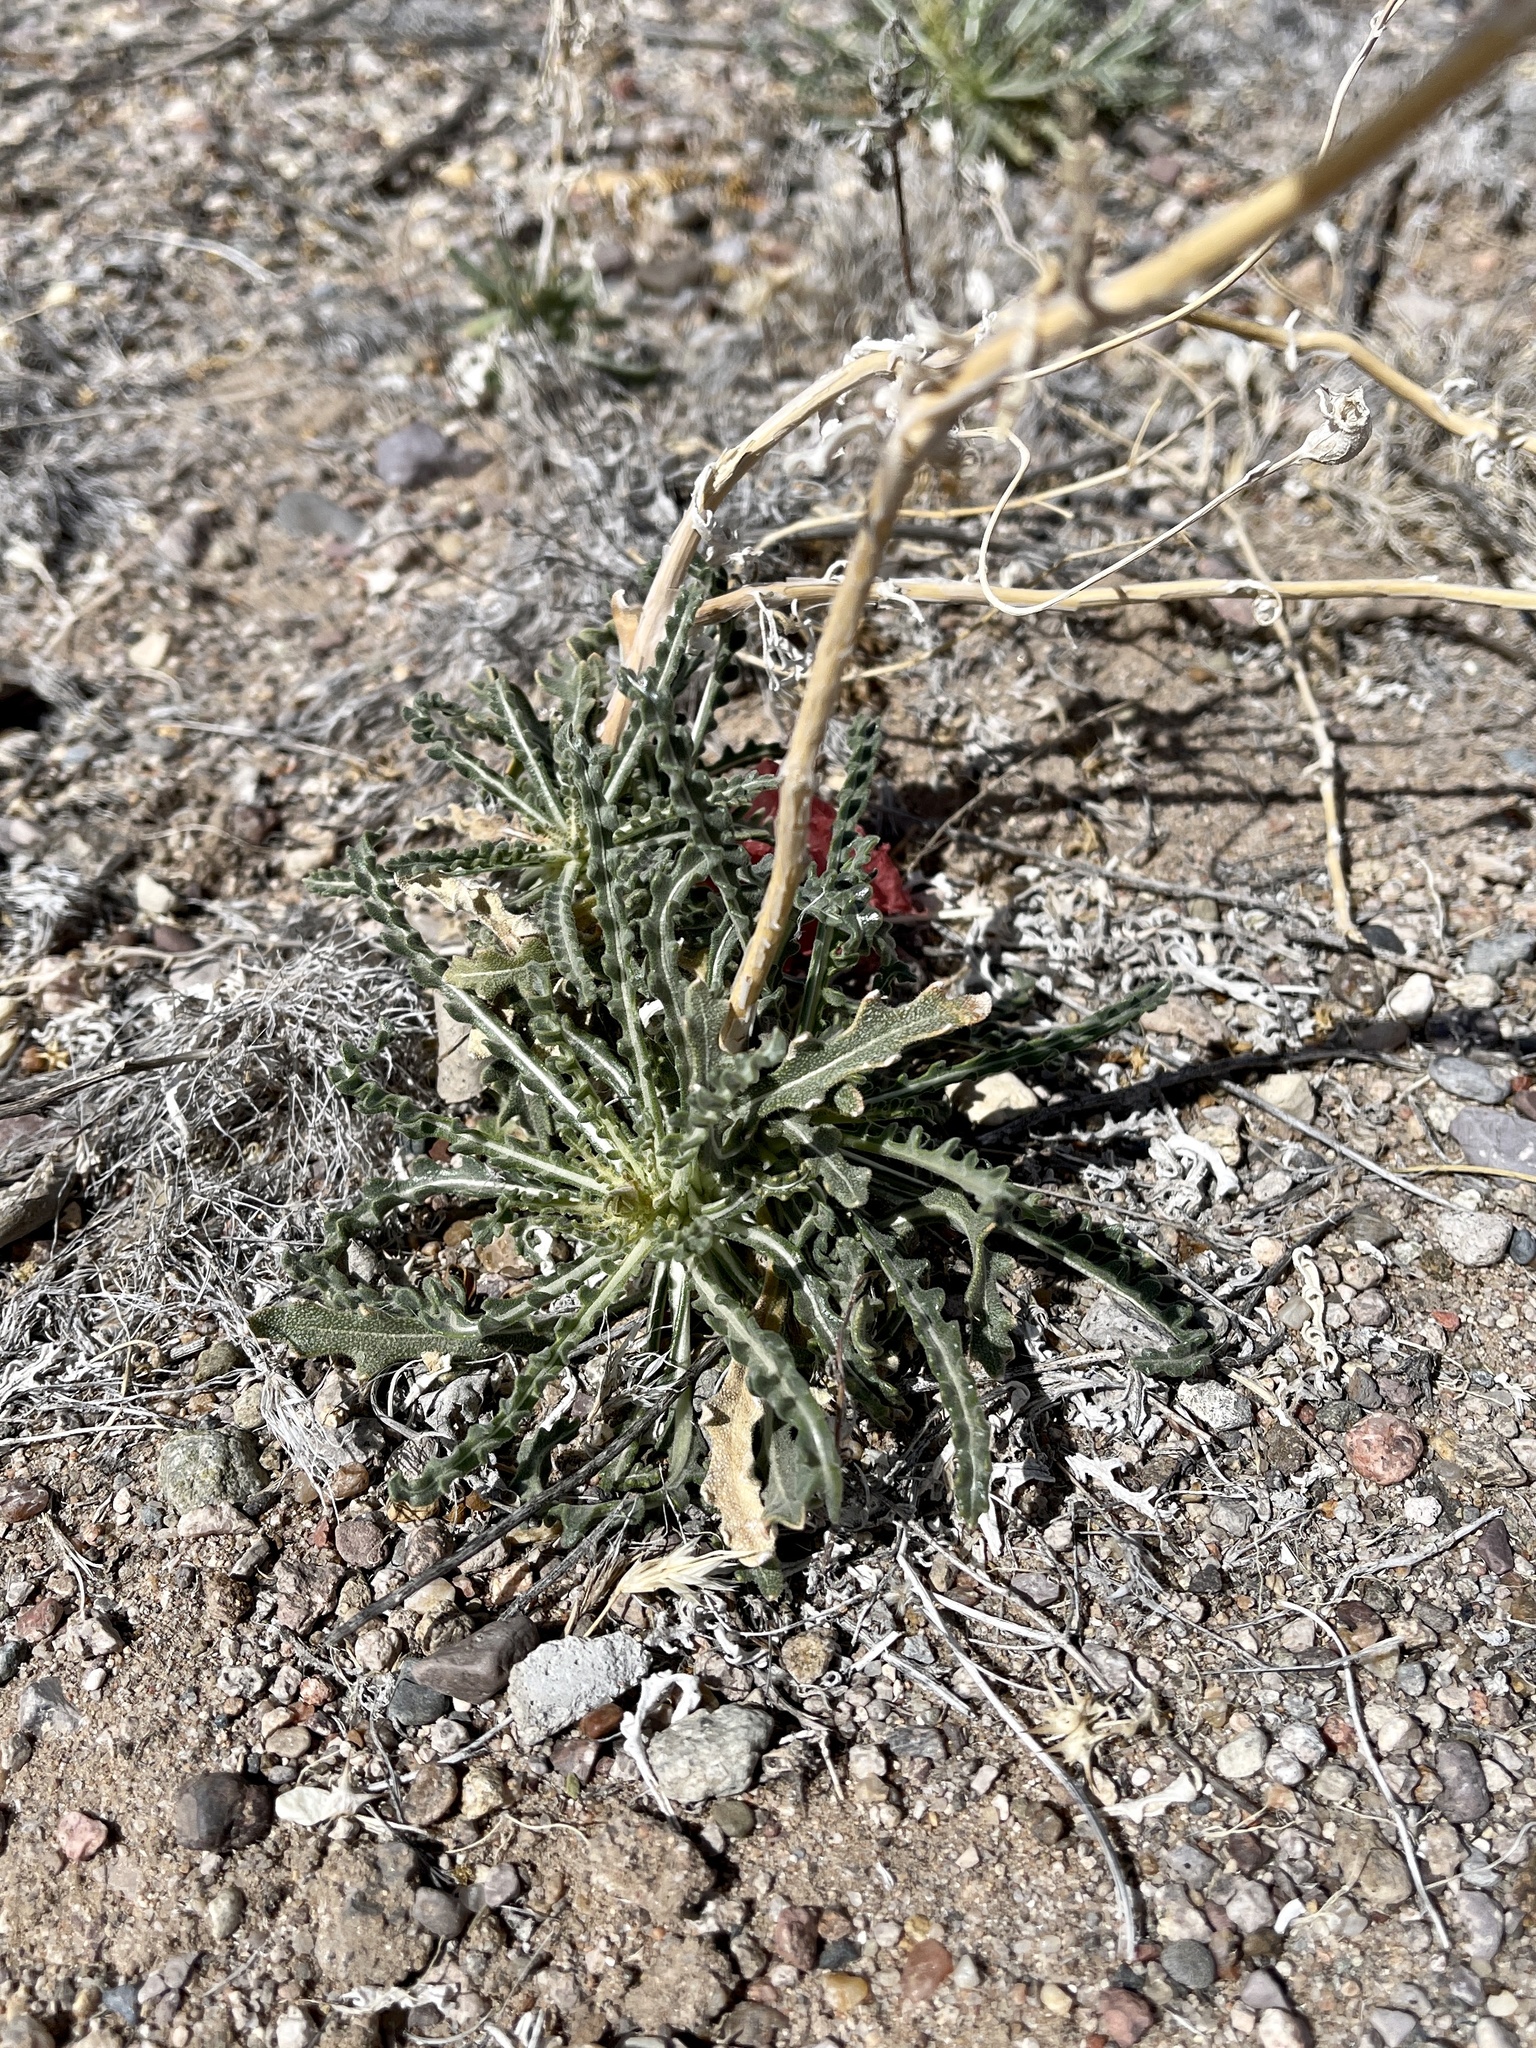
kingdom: Plantae
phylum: Tracheophyta
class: Magnoliopsida
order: Cornales
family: Loasaceae
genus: Mentzelia
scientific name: Mentzelia procera
